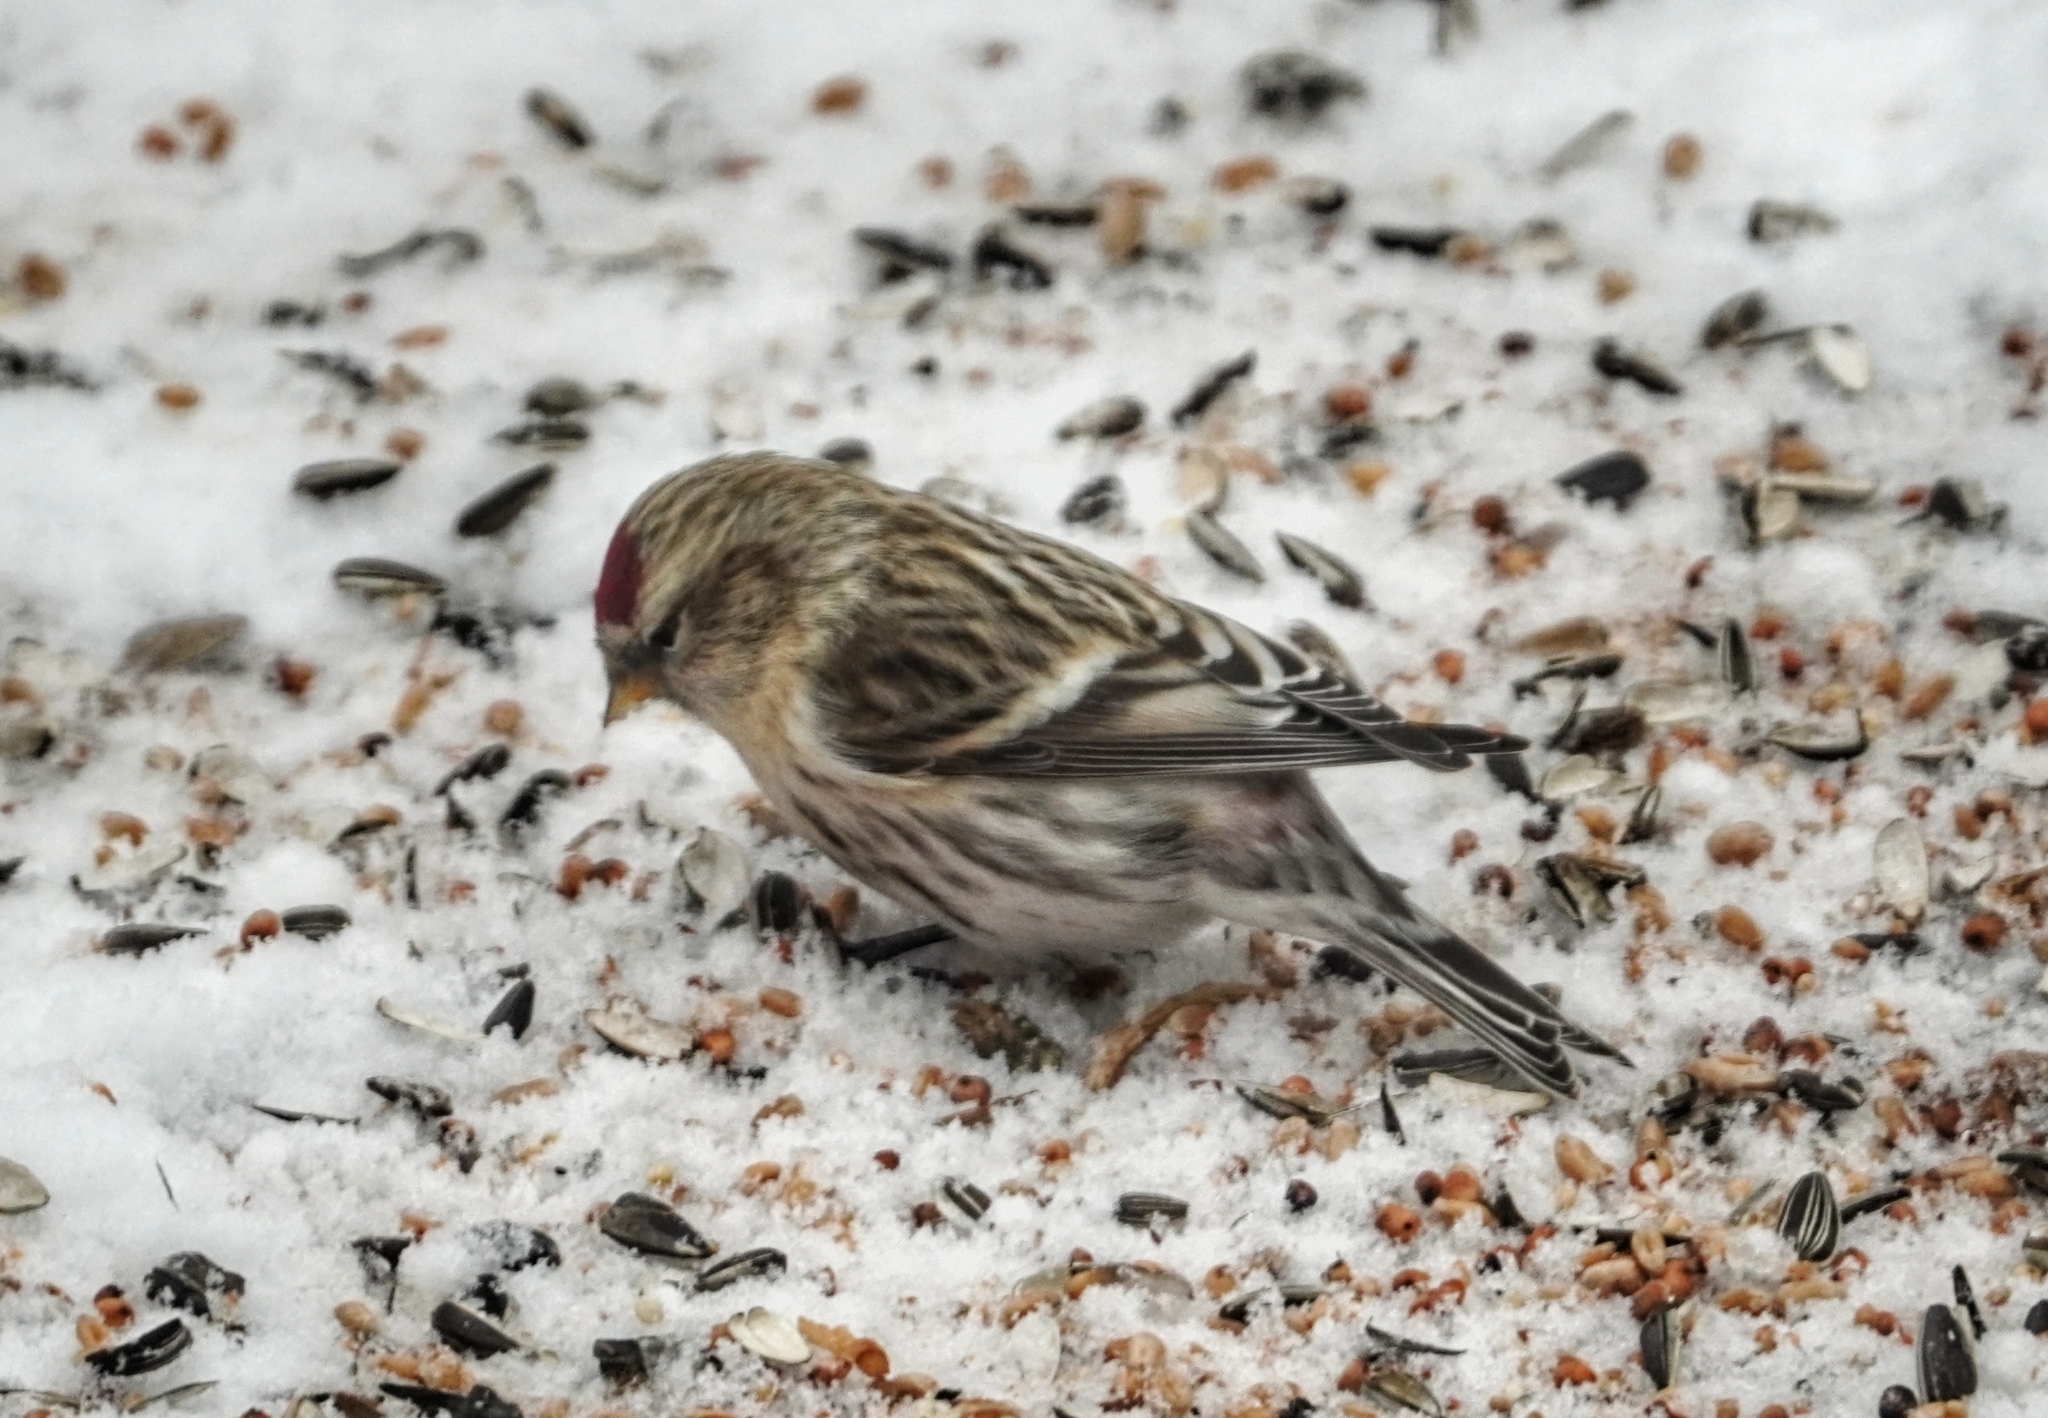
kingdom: Animalia
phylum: Chordata
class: Aves
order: Passeriformes
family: Fringillidae
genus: Acanthis
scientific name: Acanthis flammea
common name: Common redpoll
